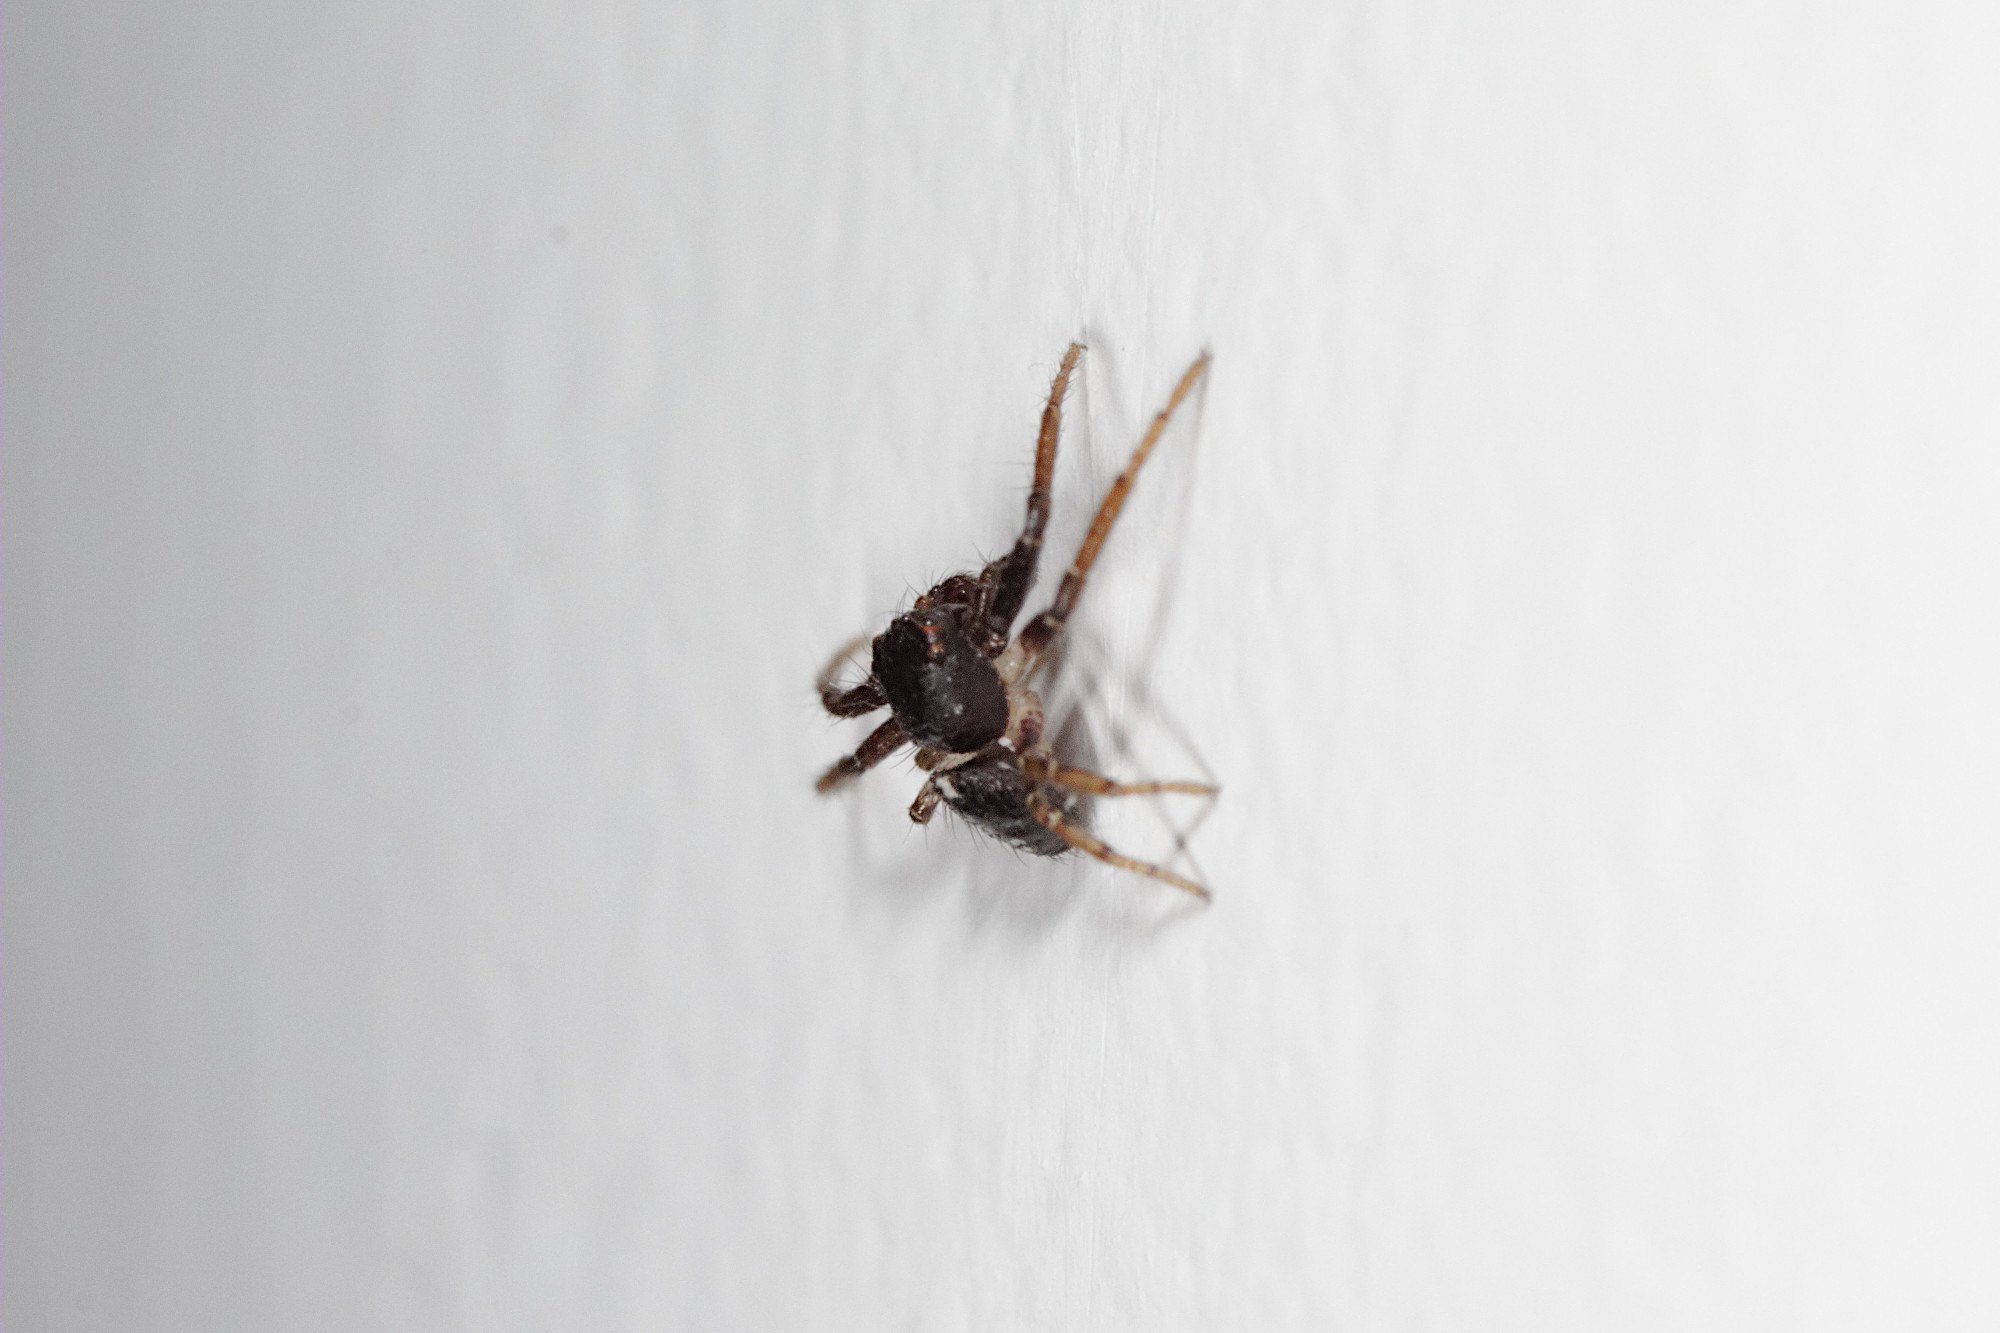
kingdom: Animalia
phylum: Arthropoda
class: Arachnida
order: Araneae
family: Thomisidae
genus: Tharpyna
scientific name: Tharpyna diademata
